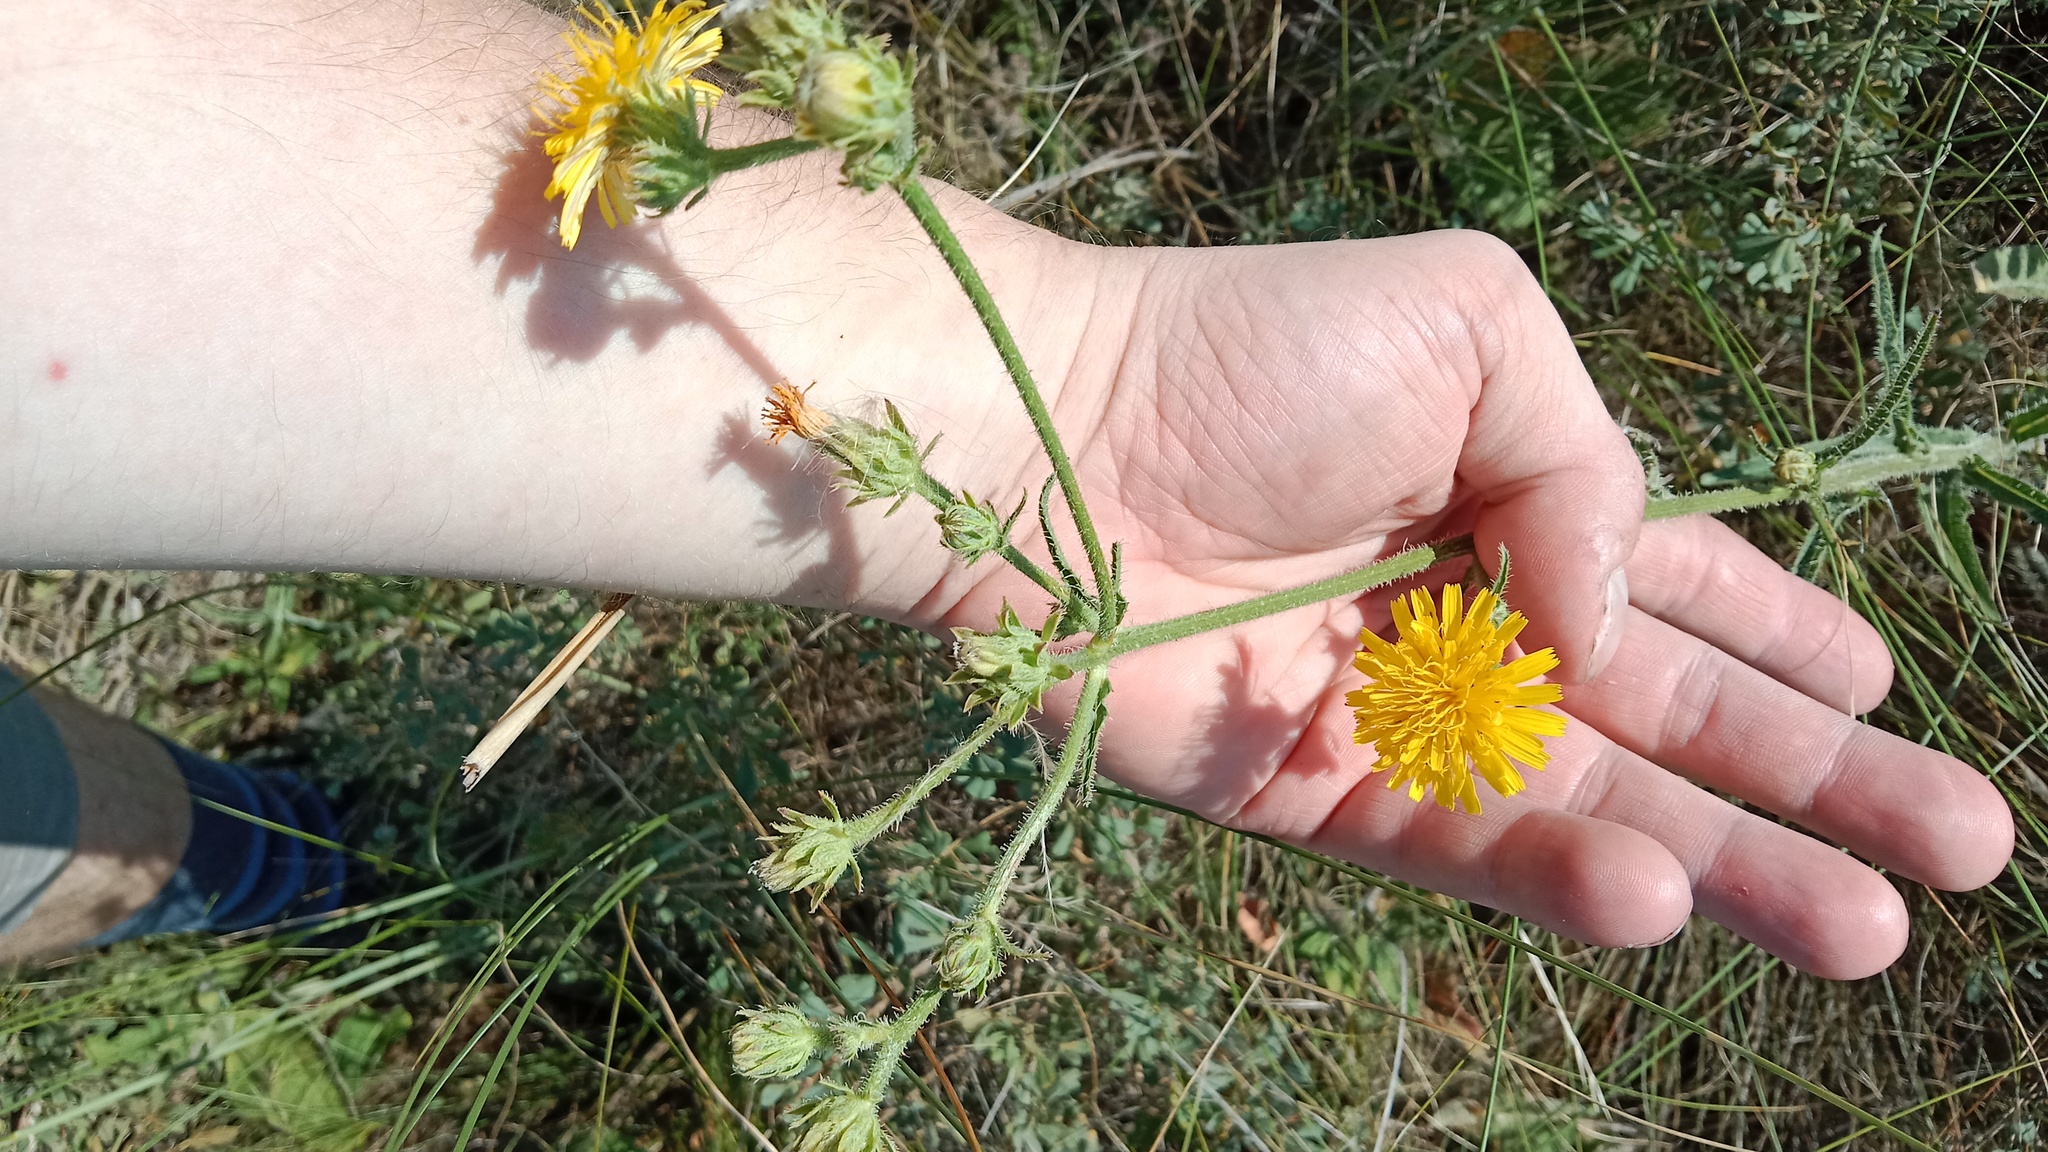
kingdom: Plantae
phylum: Tracheophyta
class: Magnoliopsida
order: Asterales
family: Asteraceae
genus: Picris
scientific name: Picris hieracioides
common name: Hawkweed oxtongue
